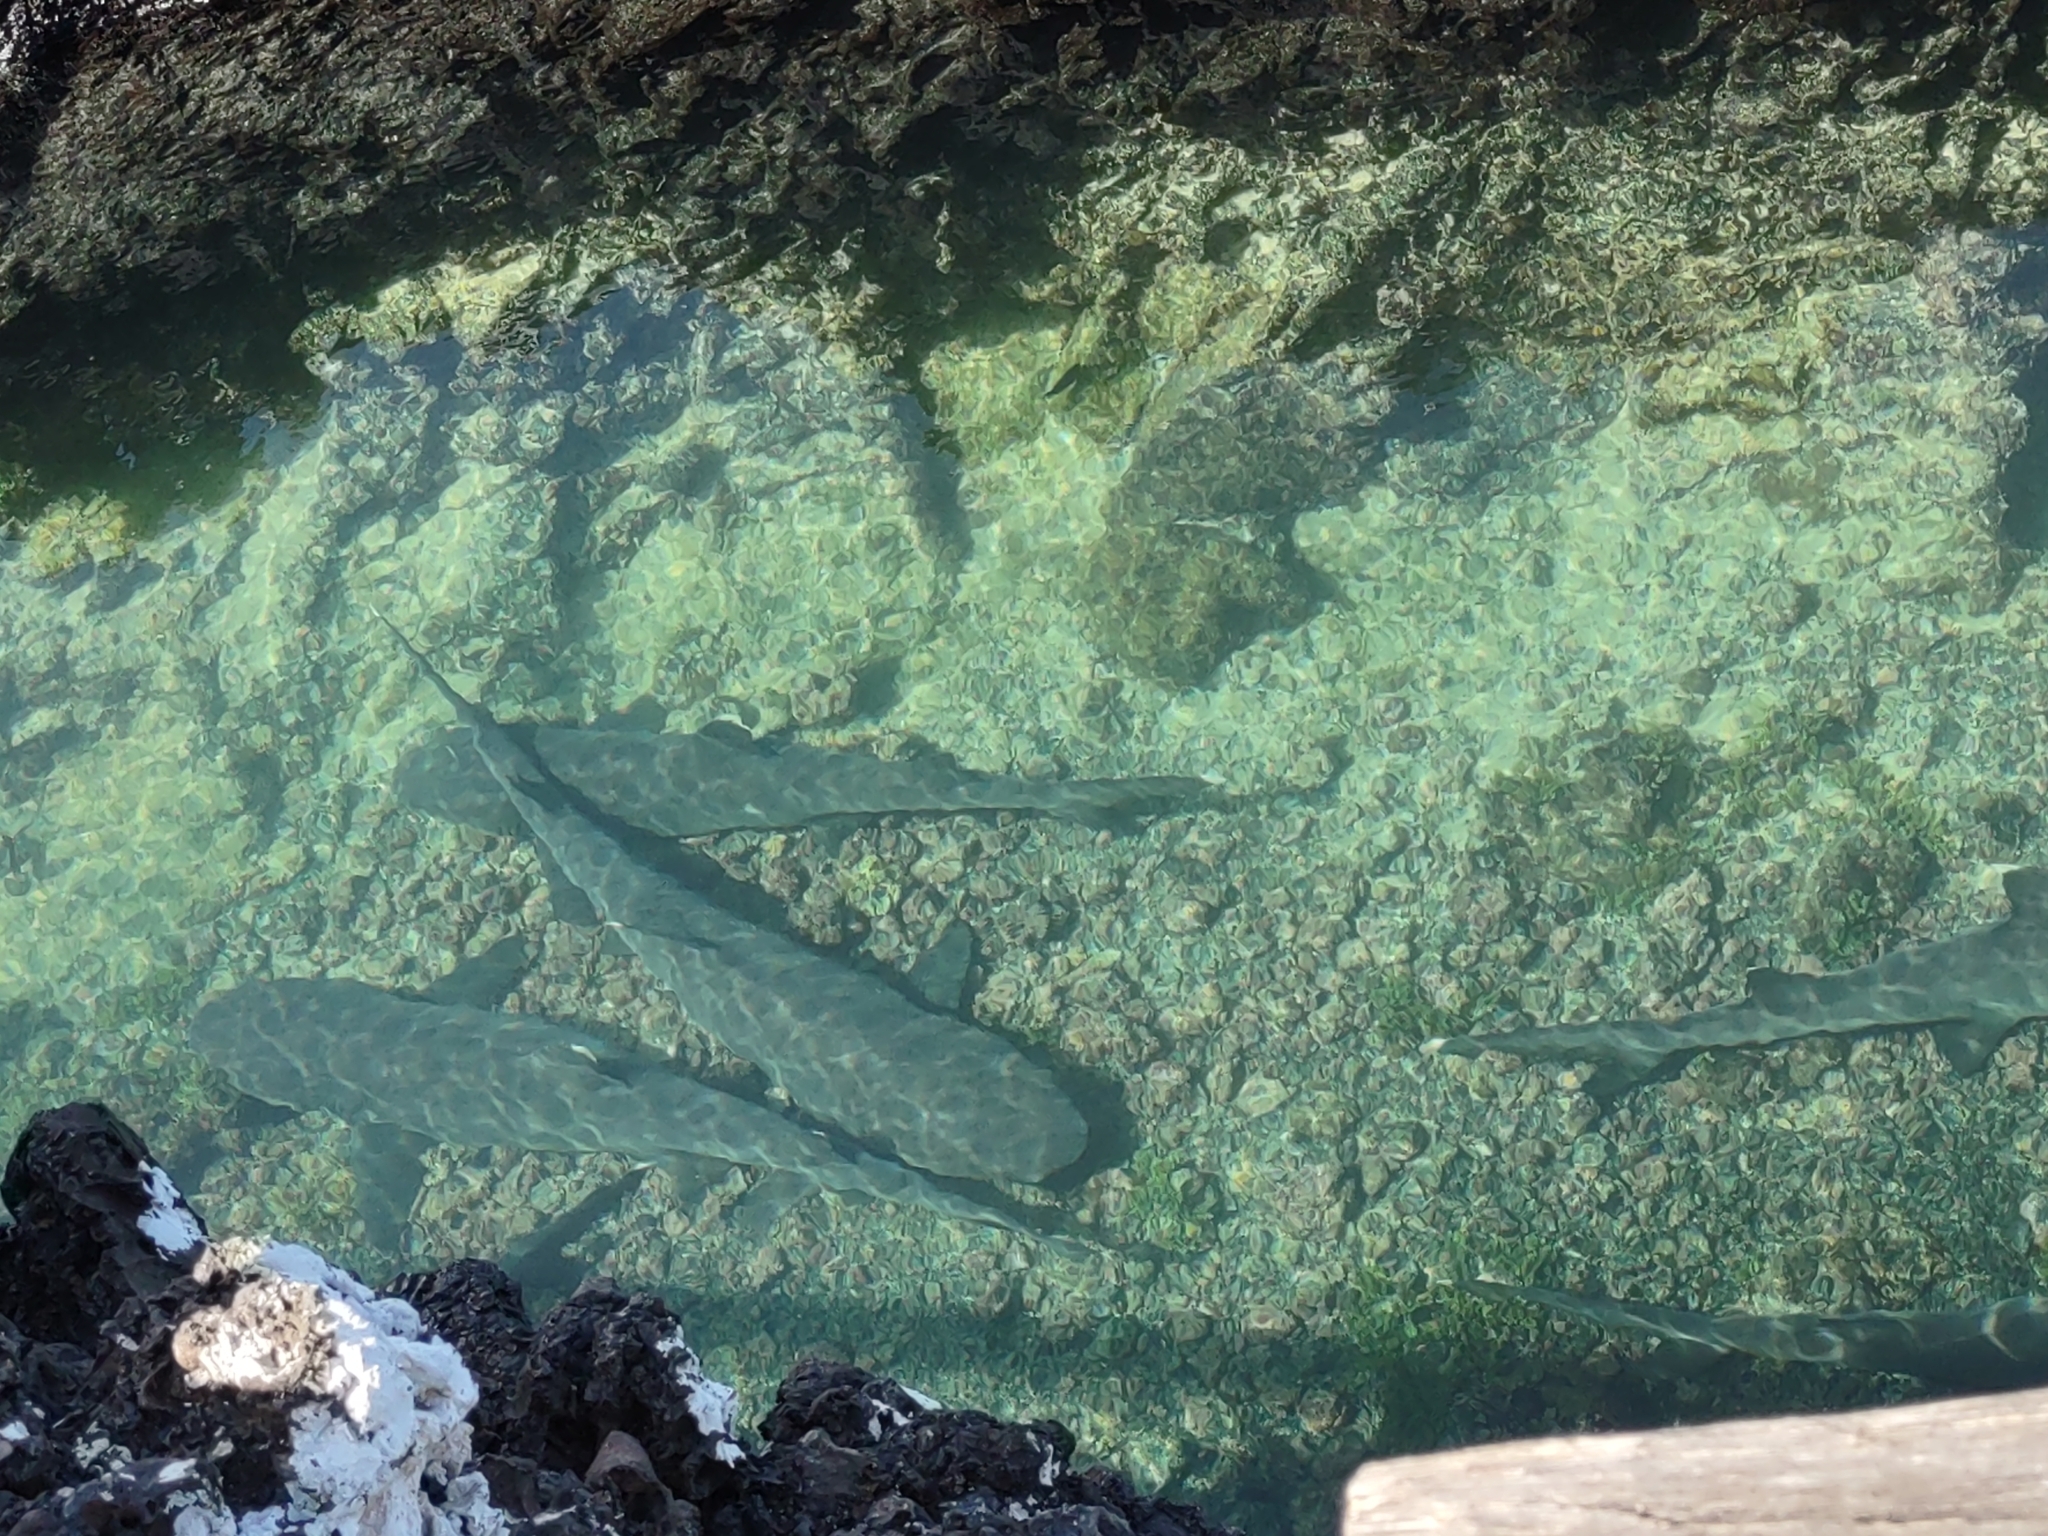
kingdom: Animalia
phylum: Chordata
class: Elasmobranchii
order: Carcharhiniformes
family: Carcharhinidae
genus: Triaenodon
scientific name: Triaenodon obesus
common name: Whitetip reef shark
